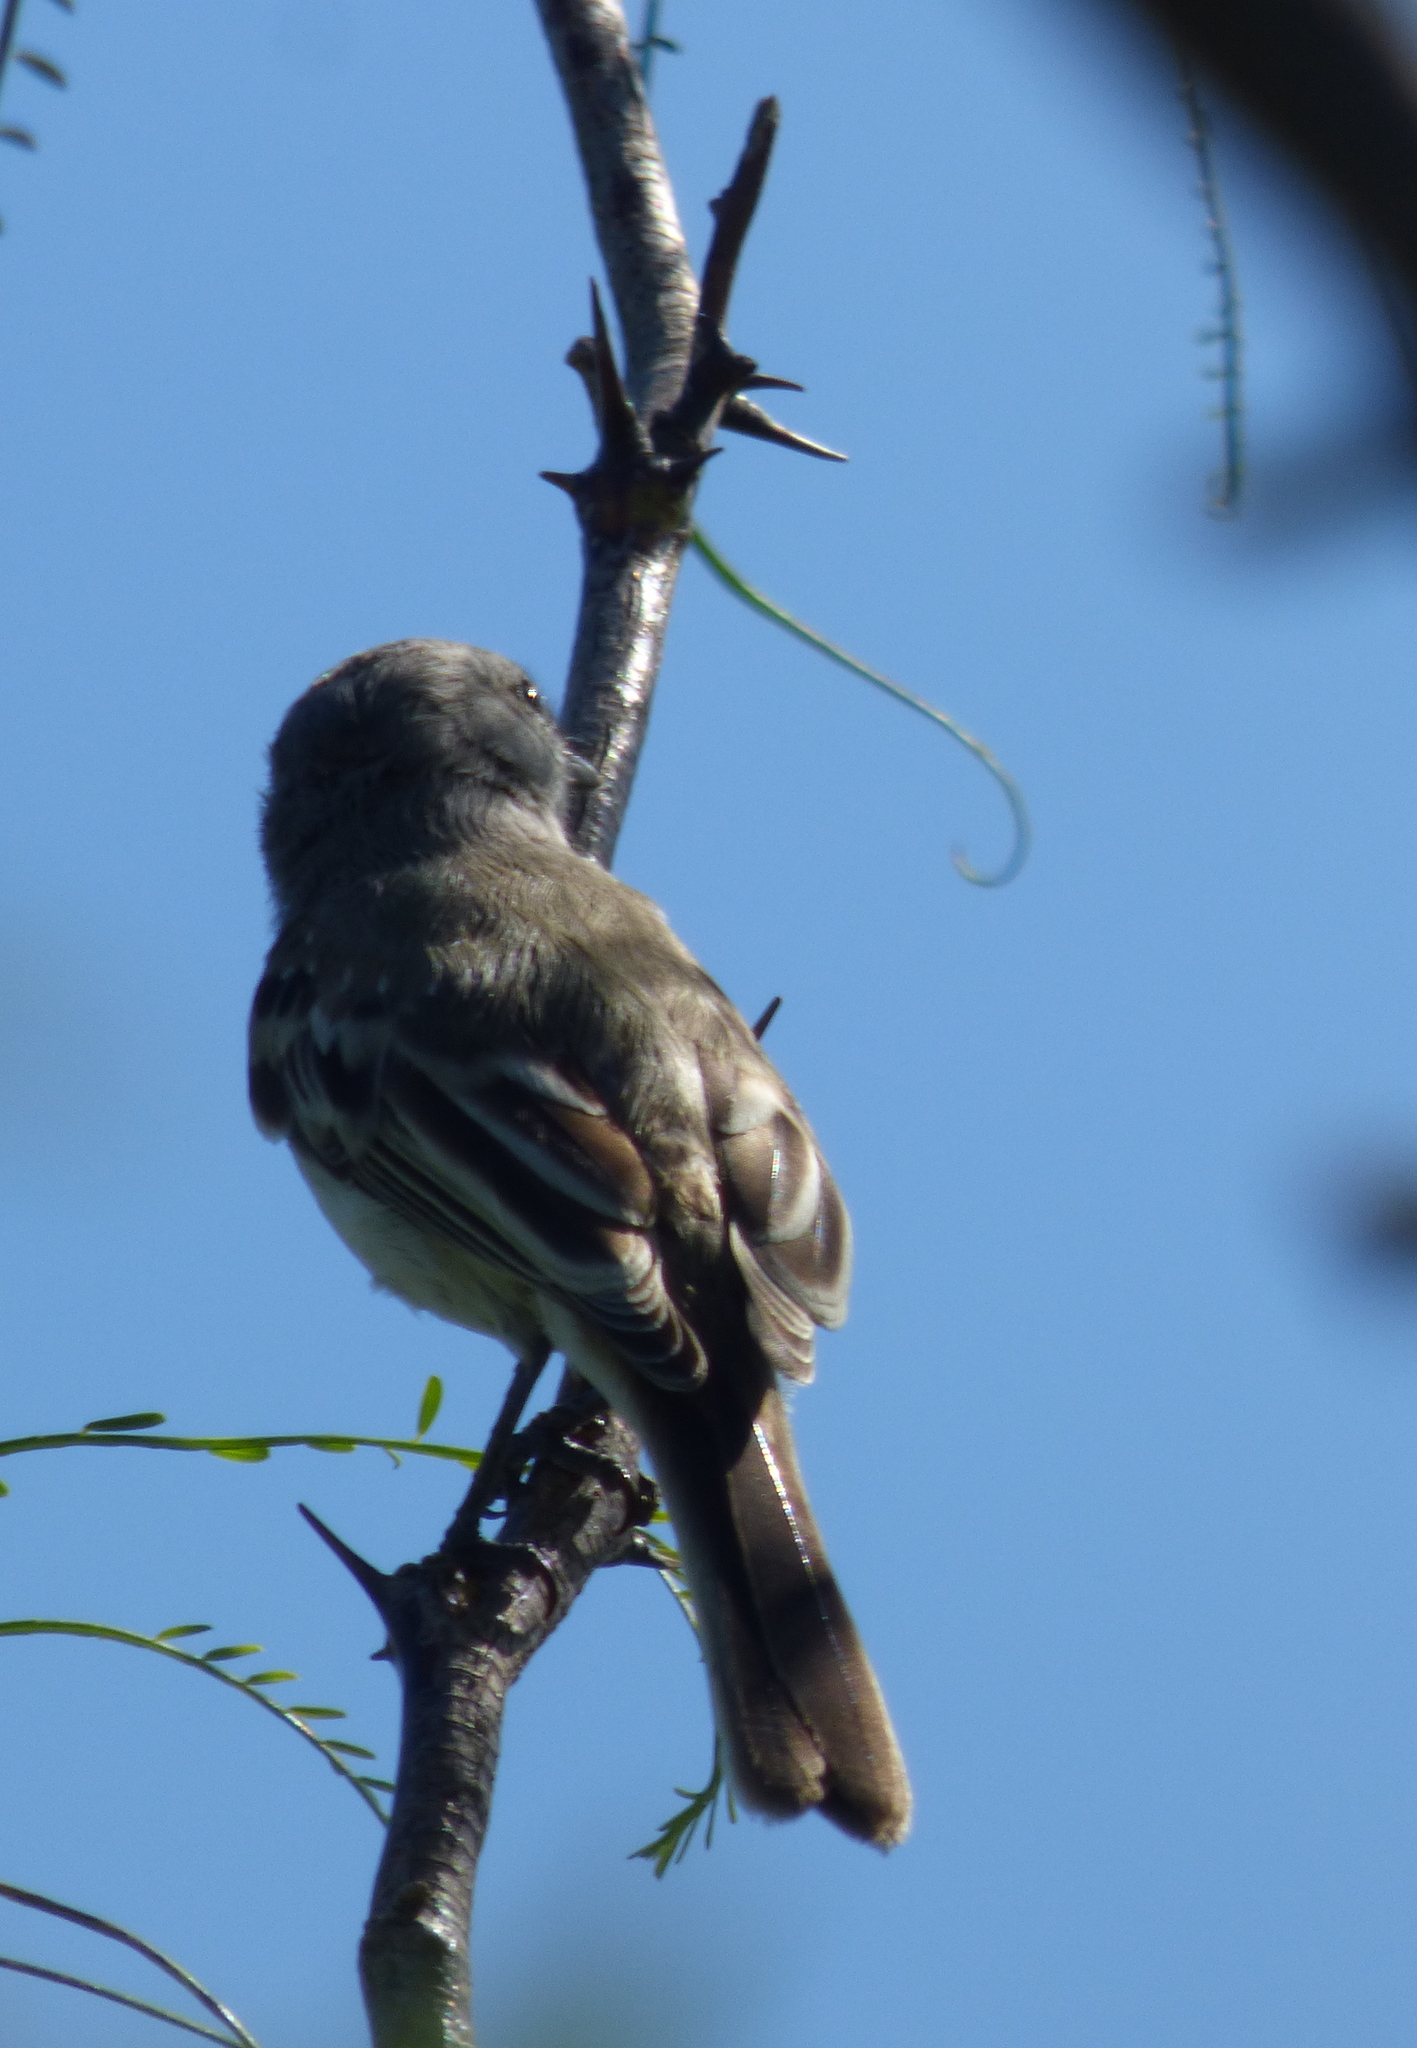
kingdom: Animalia
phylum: Chordata
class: Aves
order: Passeriformes
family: Tyrannidae
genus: Suiriri
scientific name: Suiriri suiriri
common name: Suiriri flycatcher
